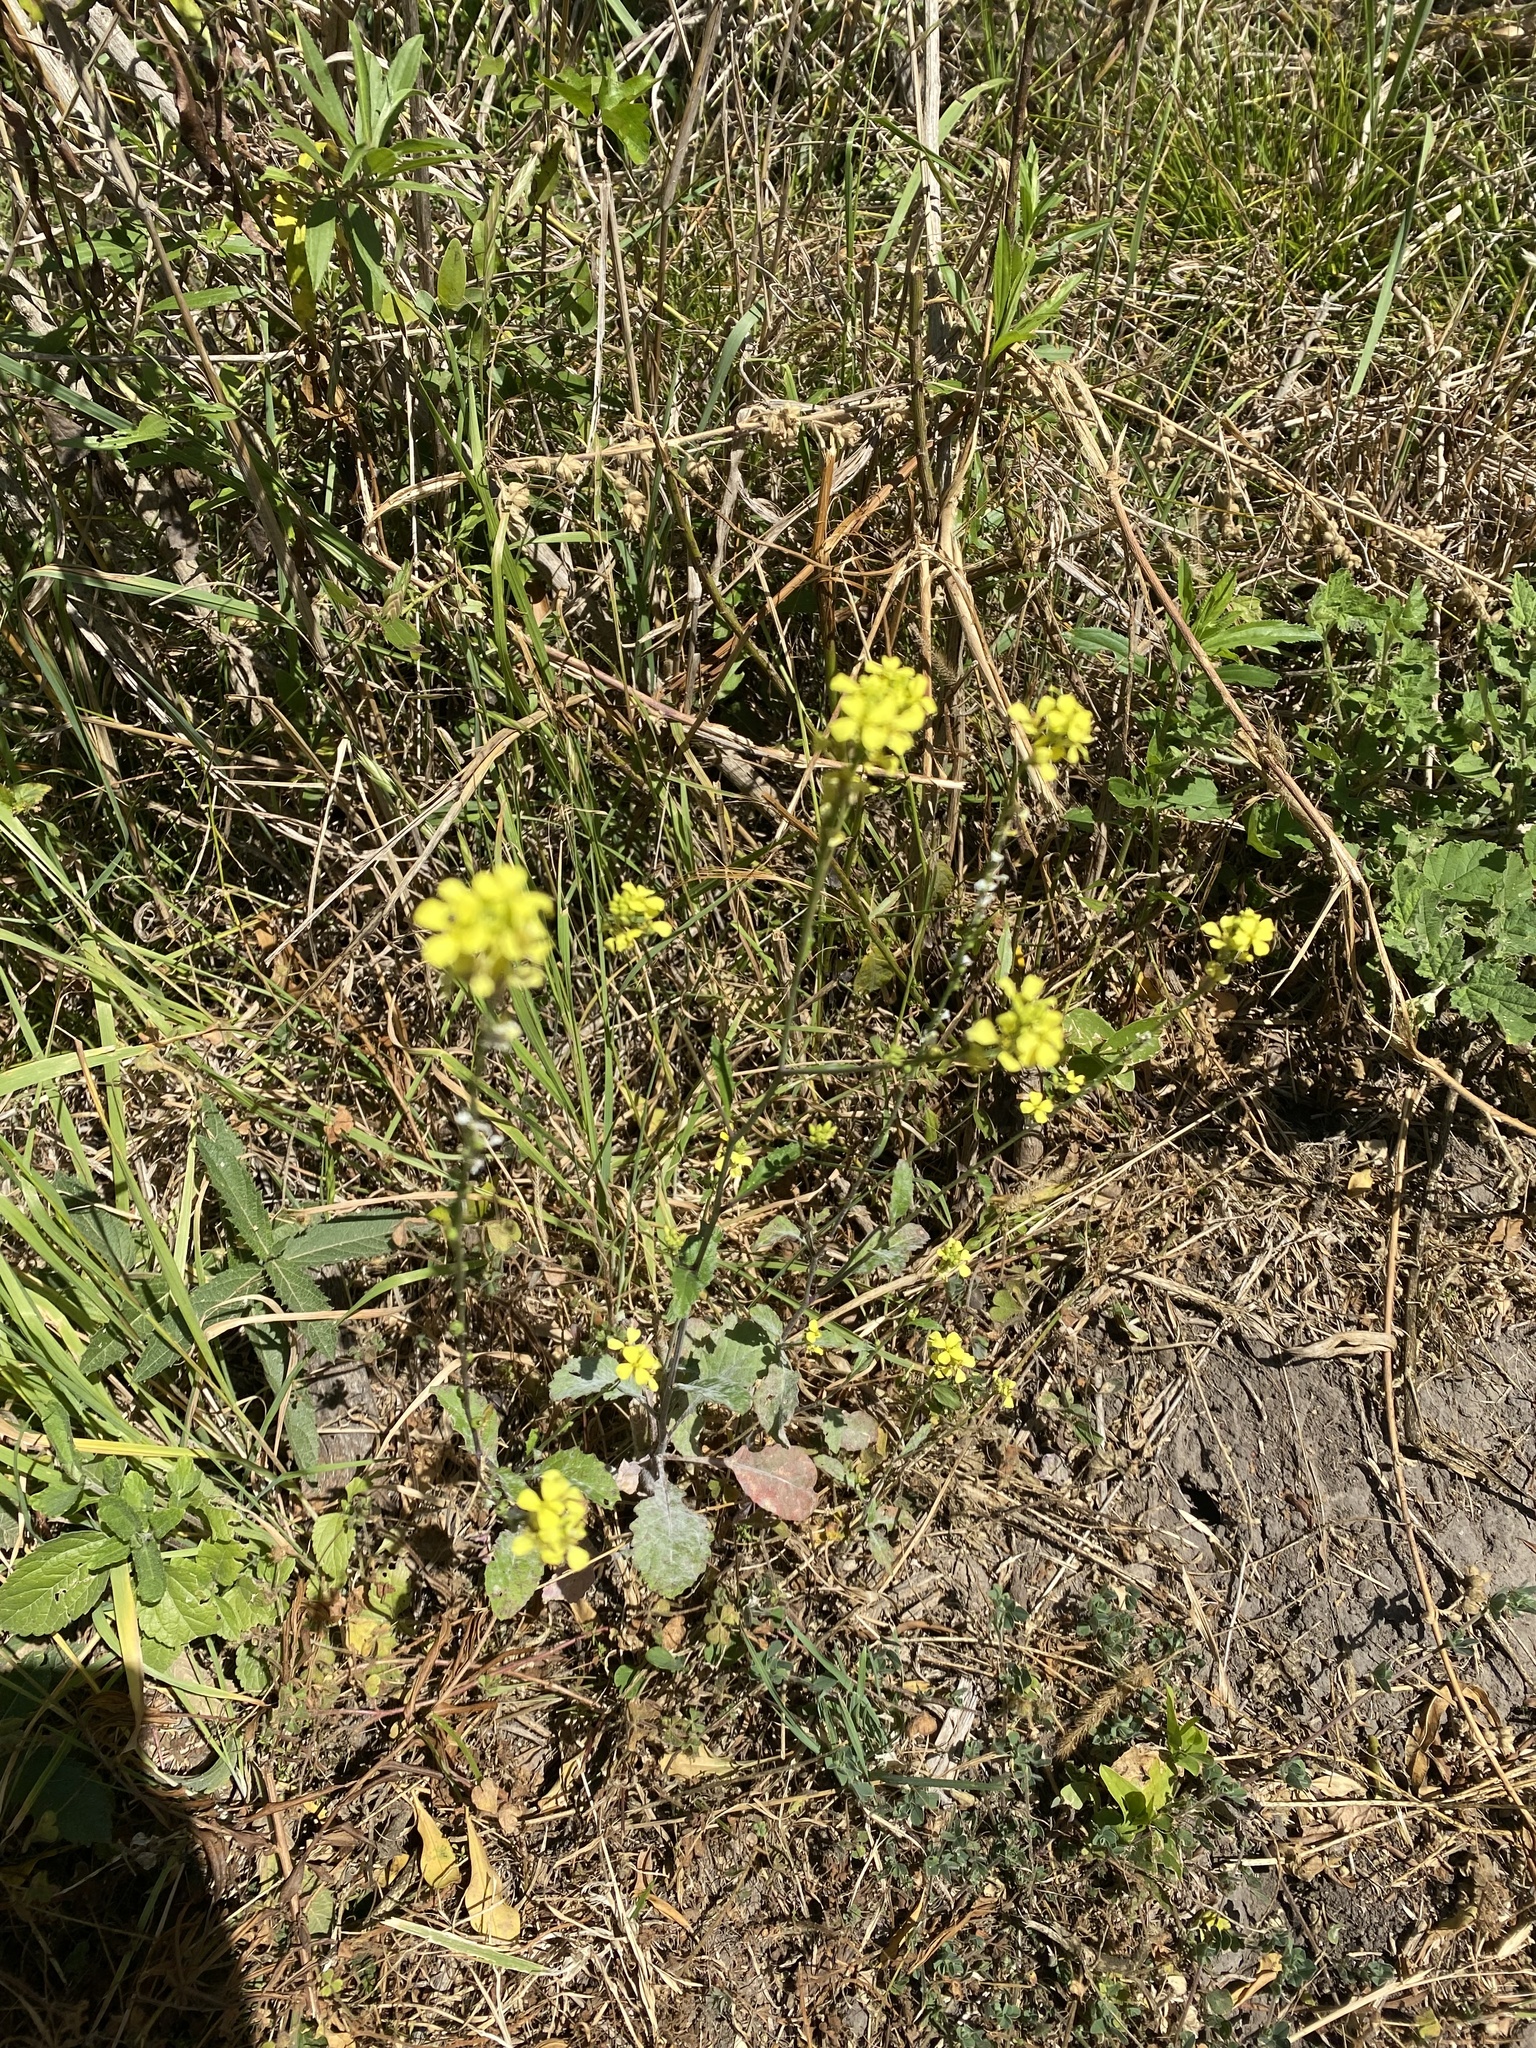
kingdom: Plantae
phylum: Tracheophyta
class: Magnoliopsida
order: Brassicales
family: Brassicaceae
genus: Rapistrum
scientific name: Rapistrum rugosum
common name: Annual bastardcabbage
